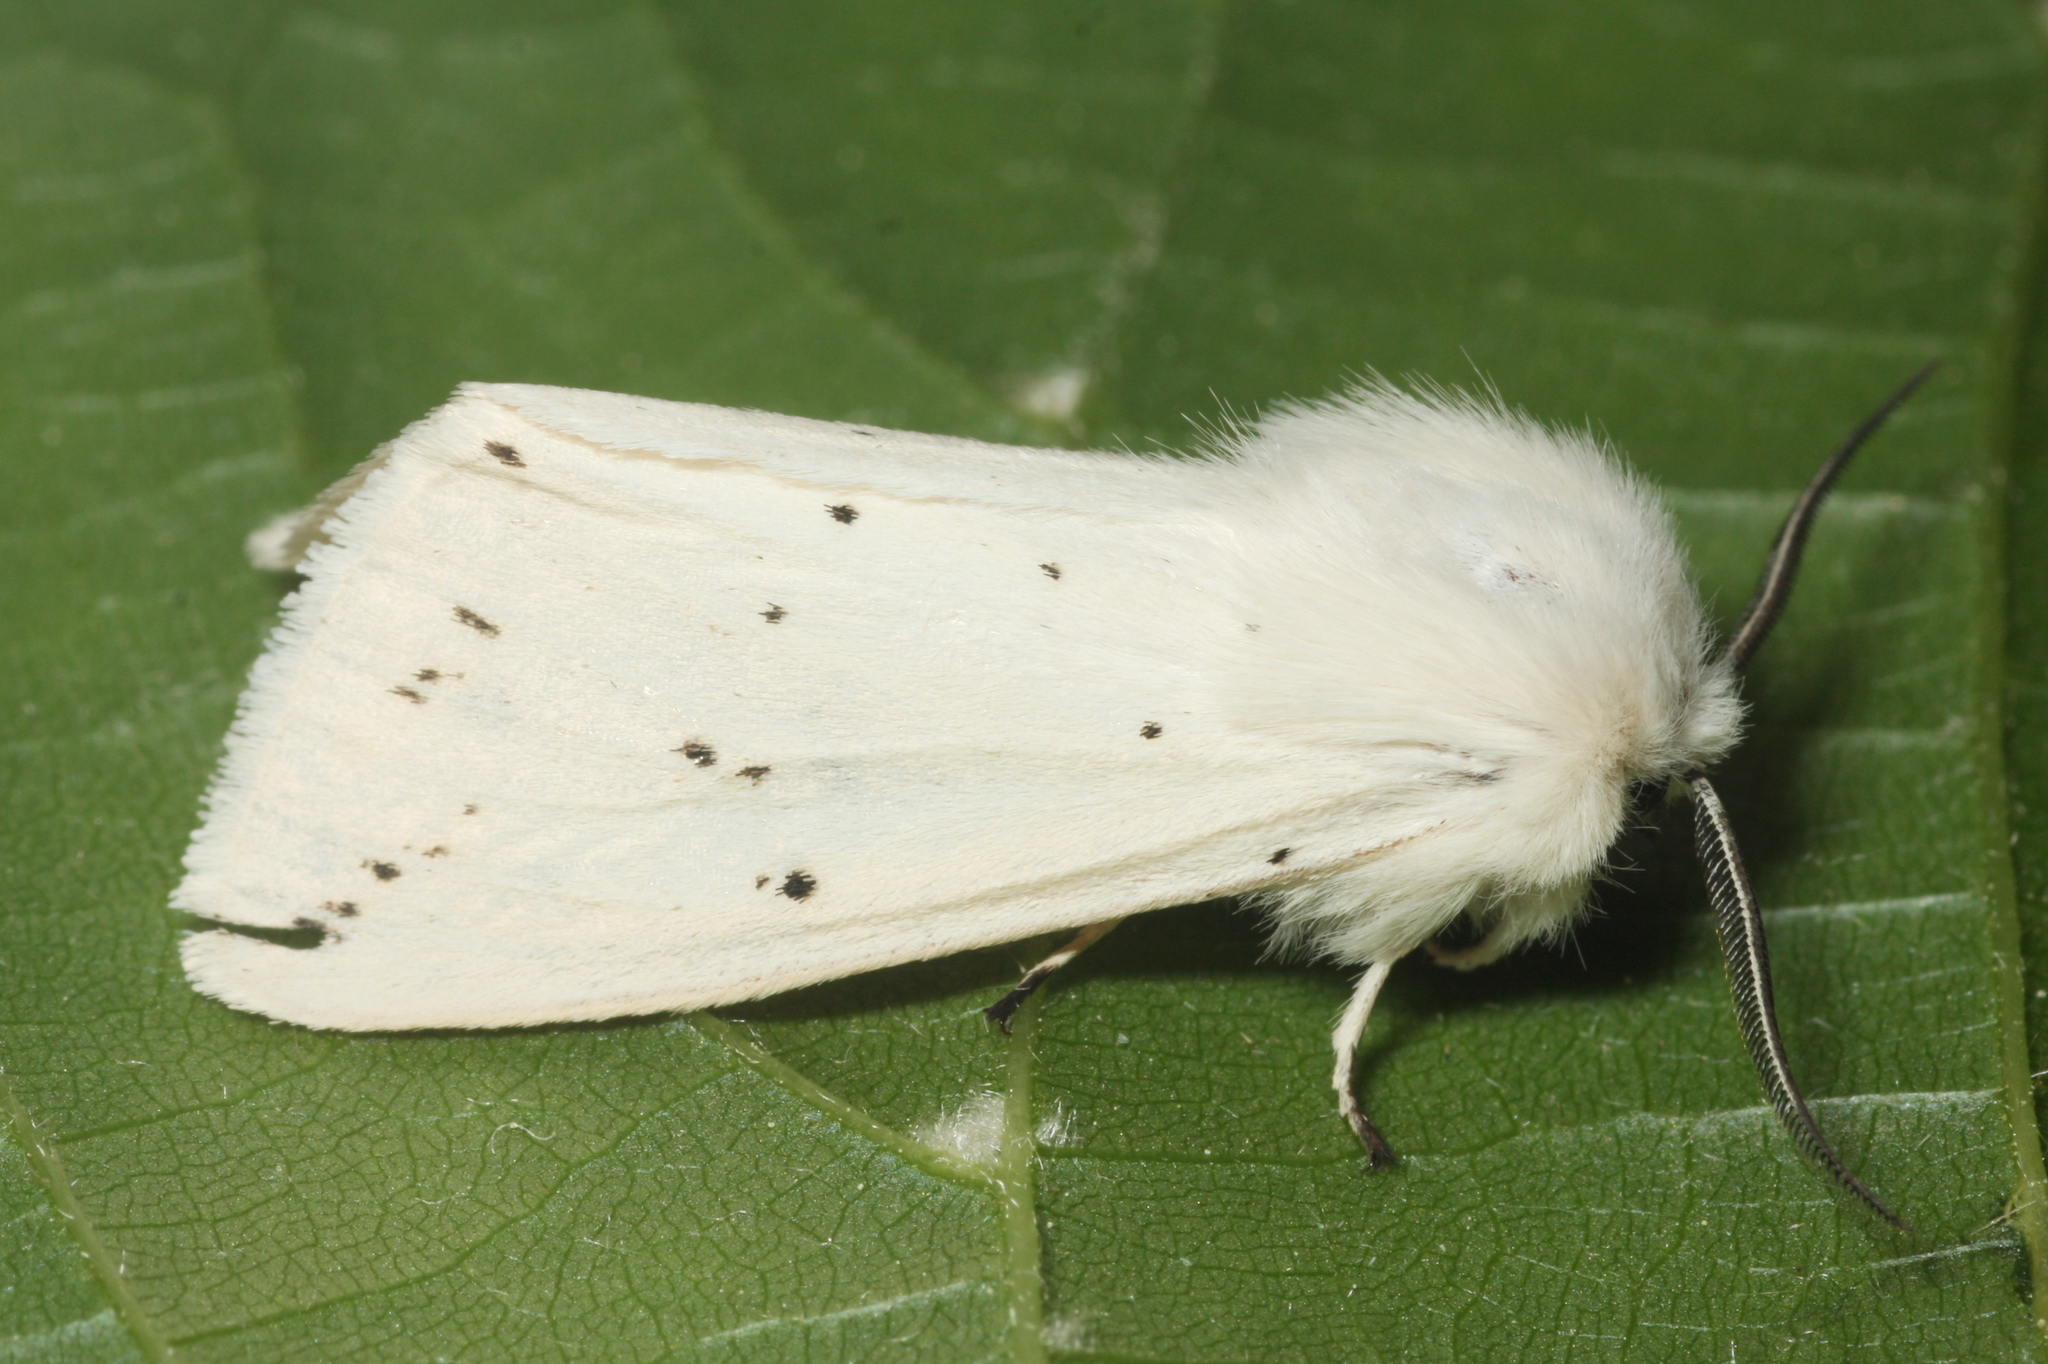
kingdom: Animalia
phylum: Arthropoda
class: Insecta
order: Lepidoptera
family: Erebidae
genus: Spilosoma
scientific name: Spilosoma lubricipeda
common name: White ermine
